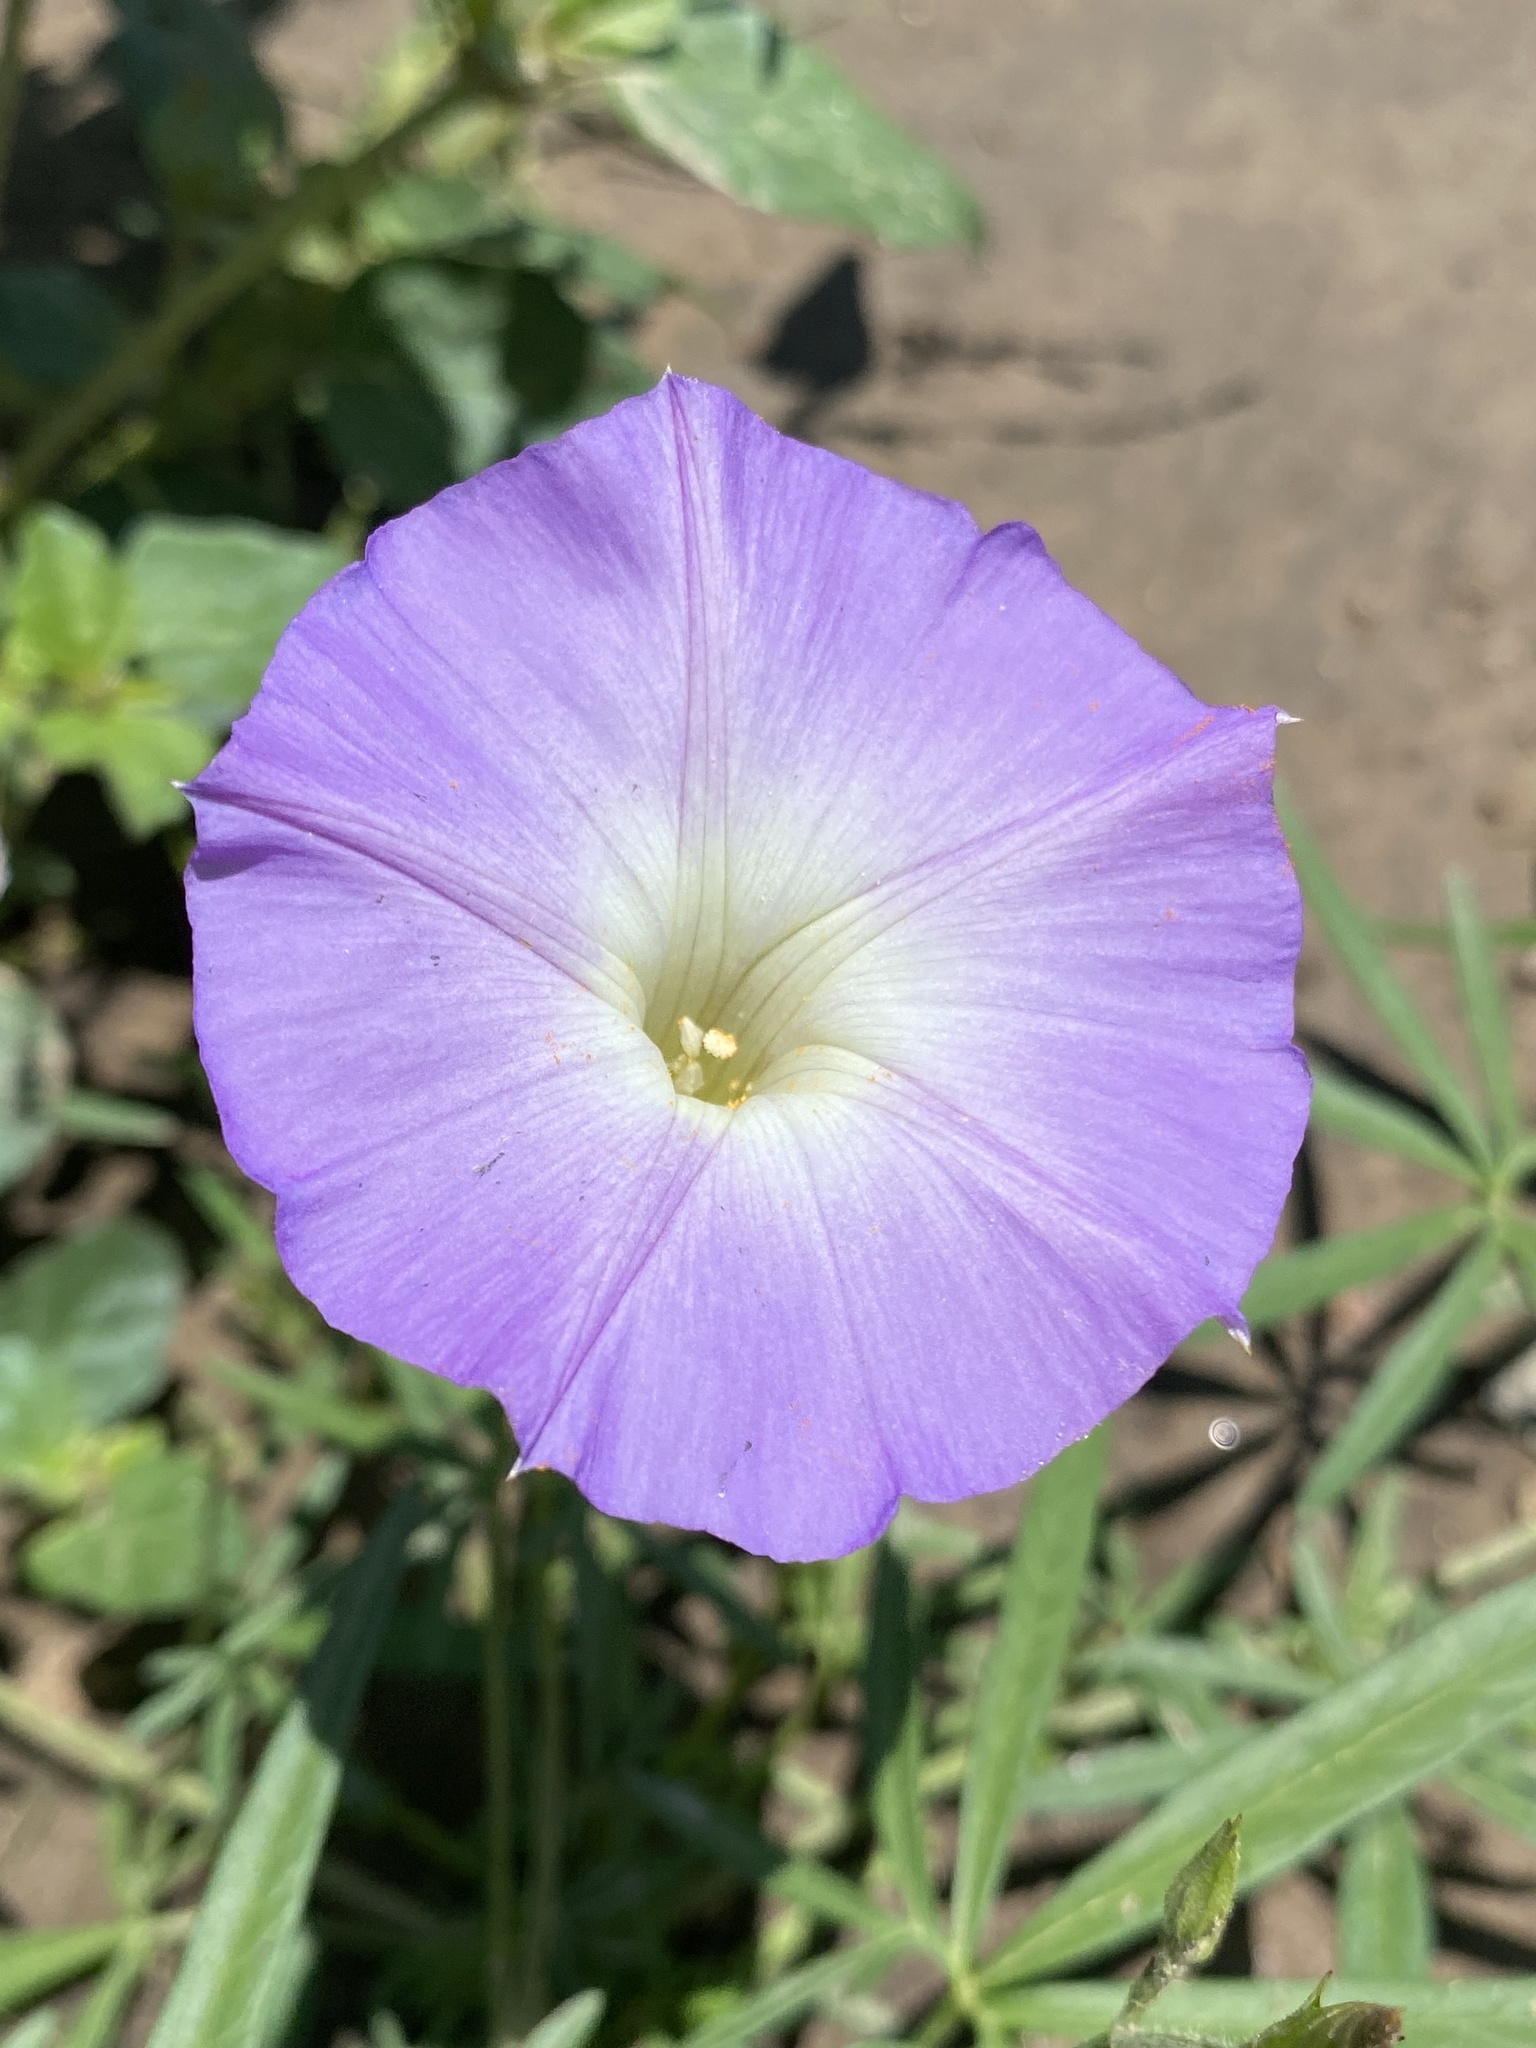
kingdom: Plantae
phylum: Tracheophyta
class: Magnoliopsida
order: Solanales
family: Convolvulaceae
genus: Ipomoea
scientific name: Ipomoea ternifolia
